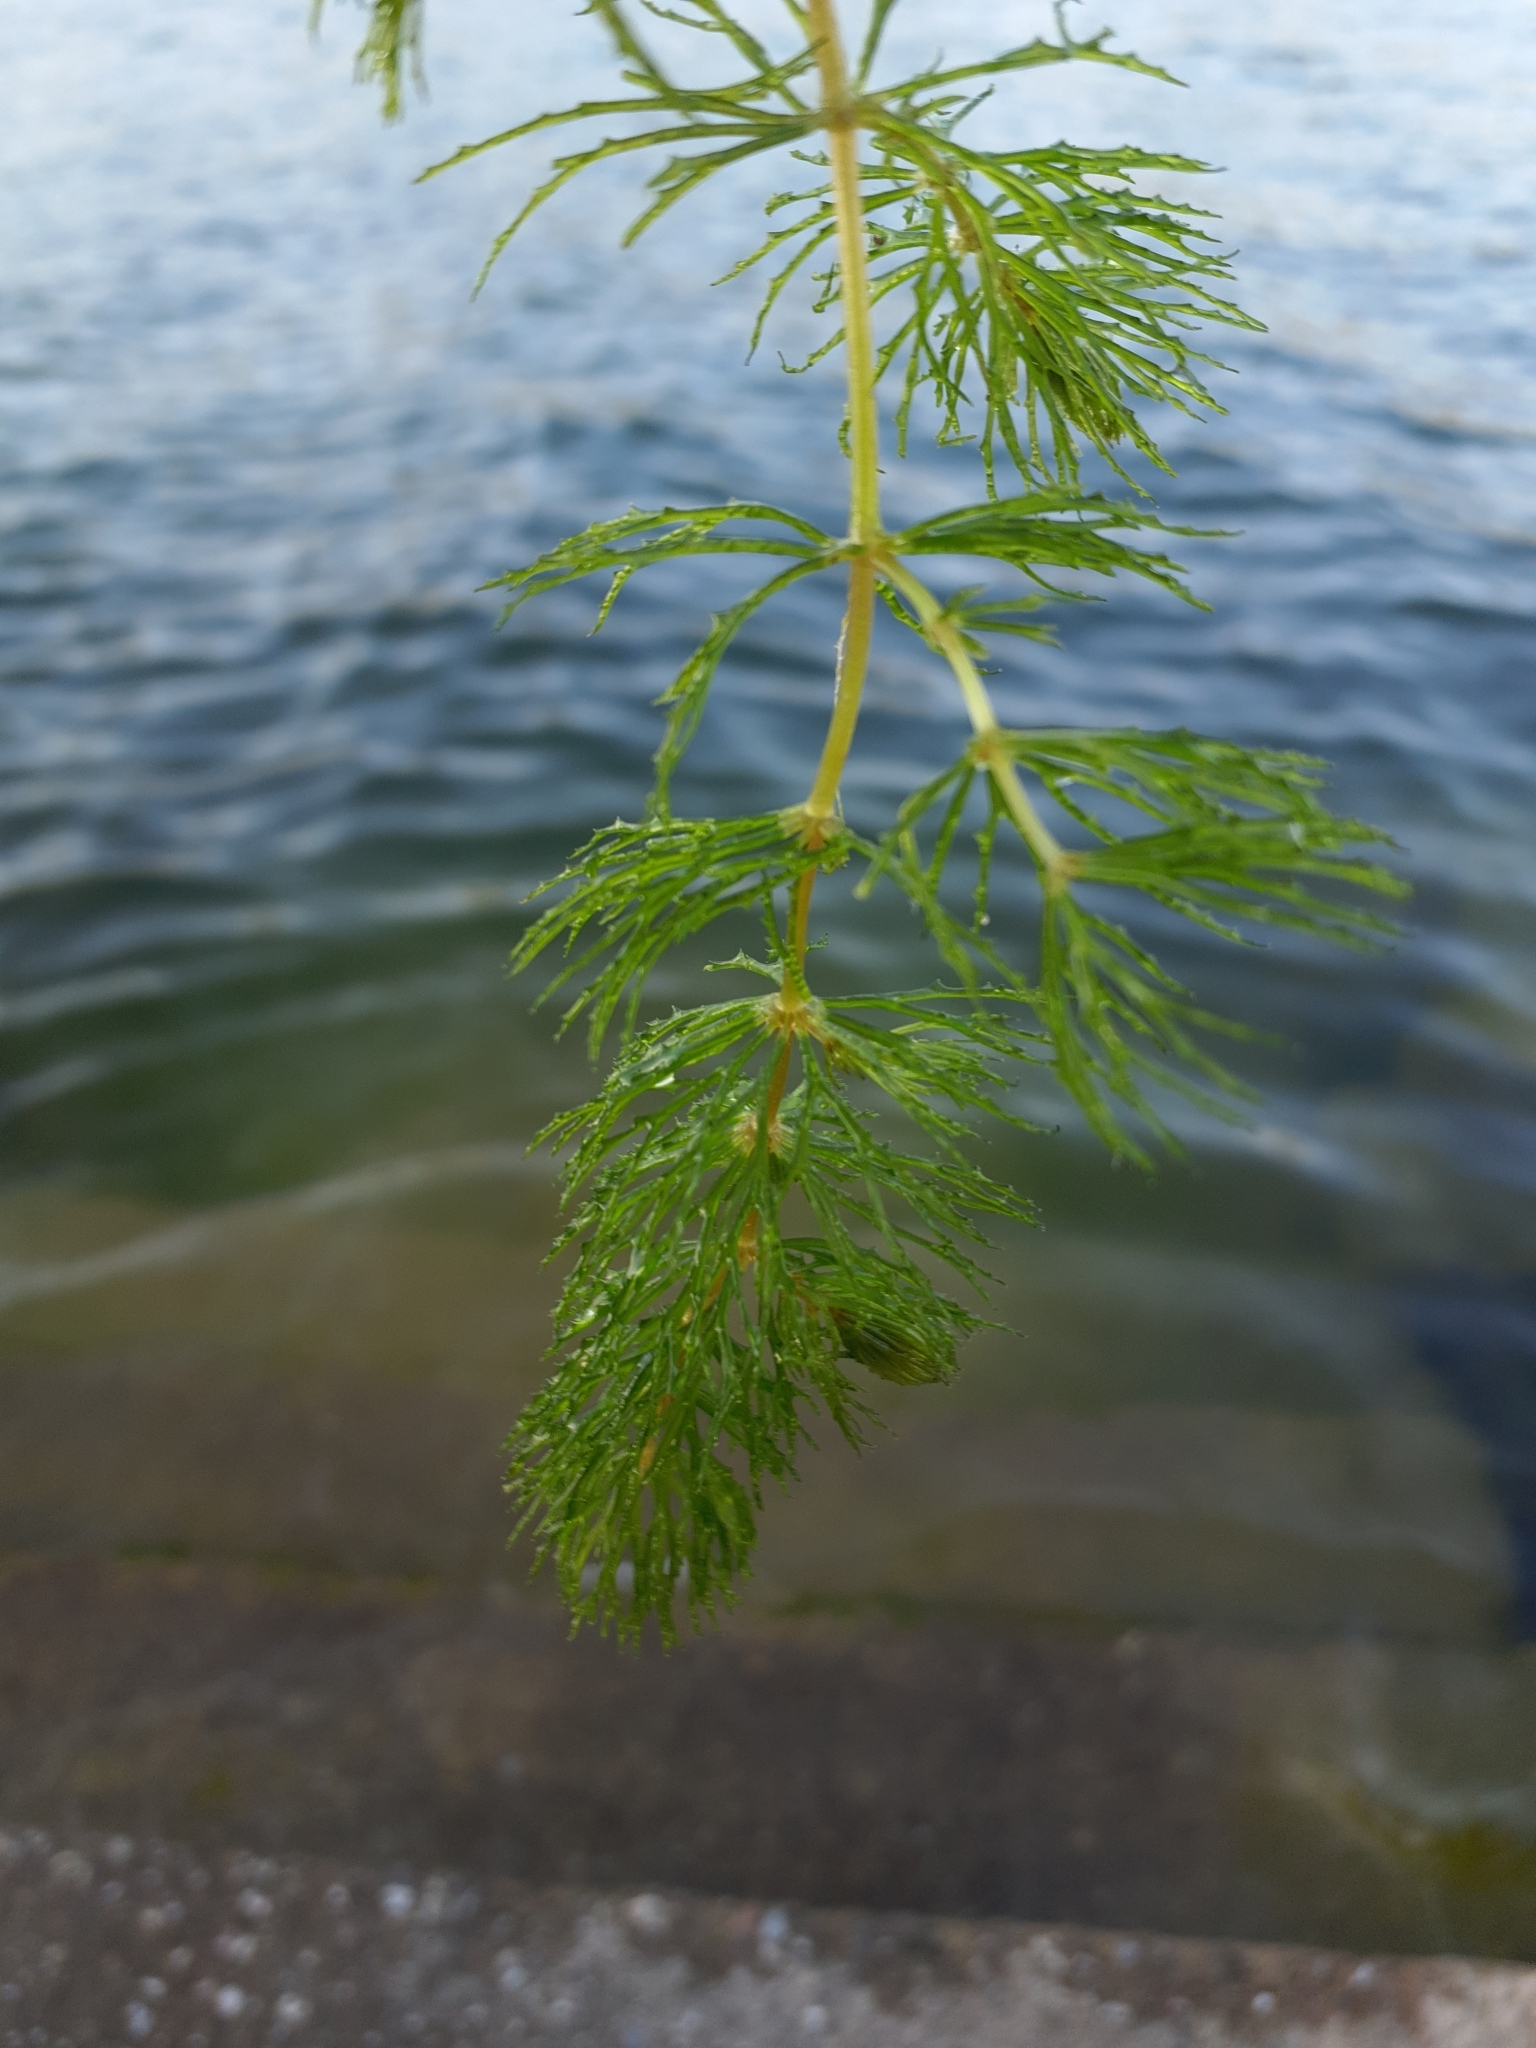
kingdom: Plantae
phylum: Tracheophyta
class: Magnoliopsida
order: Ceratophyllales
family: Ceratophyllaceae
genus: Ceratophyllum
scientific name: Ceratophyllum demersum
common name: Rigid hornwort
